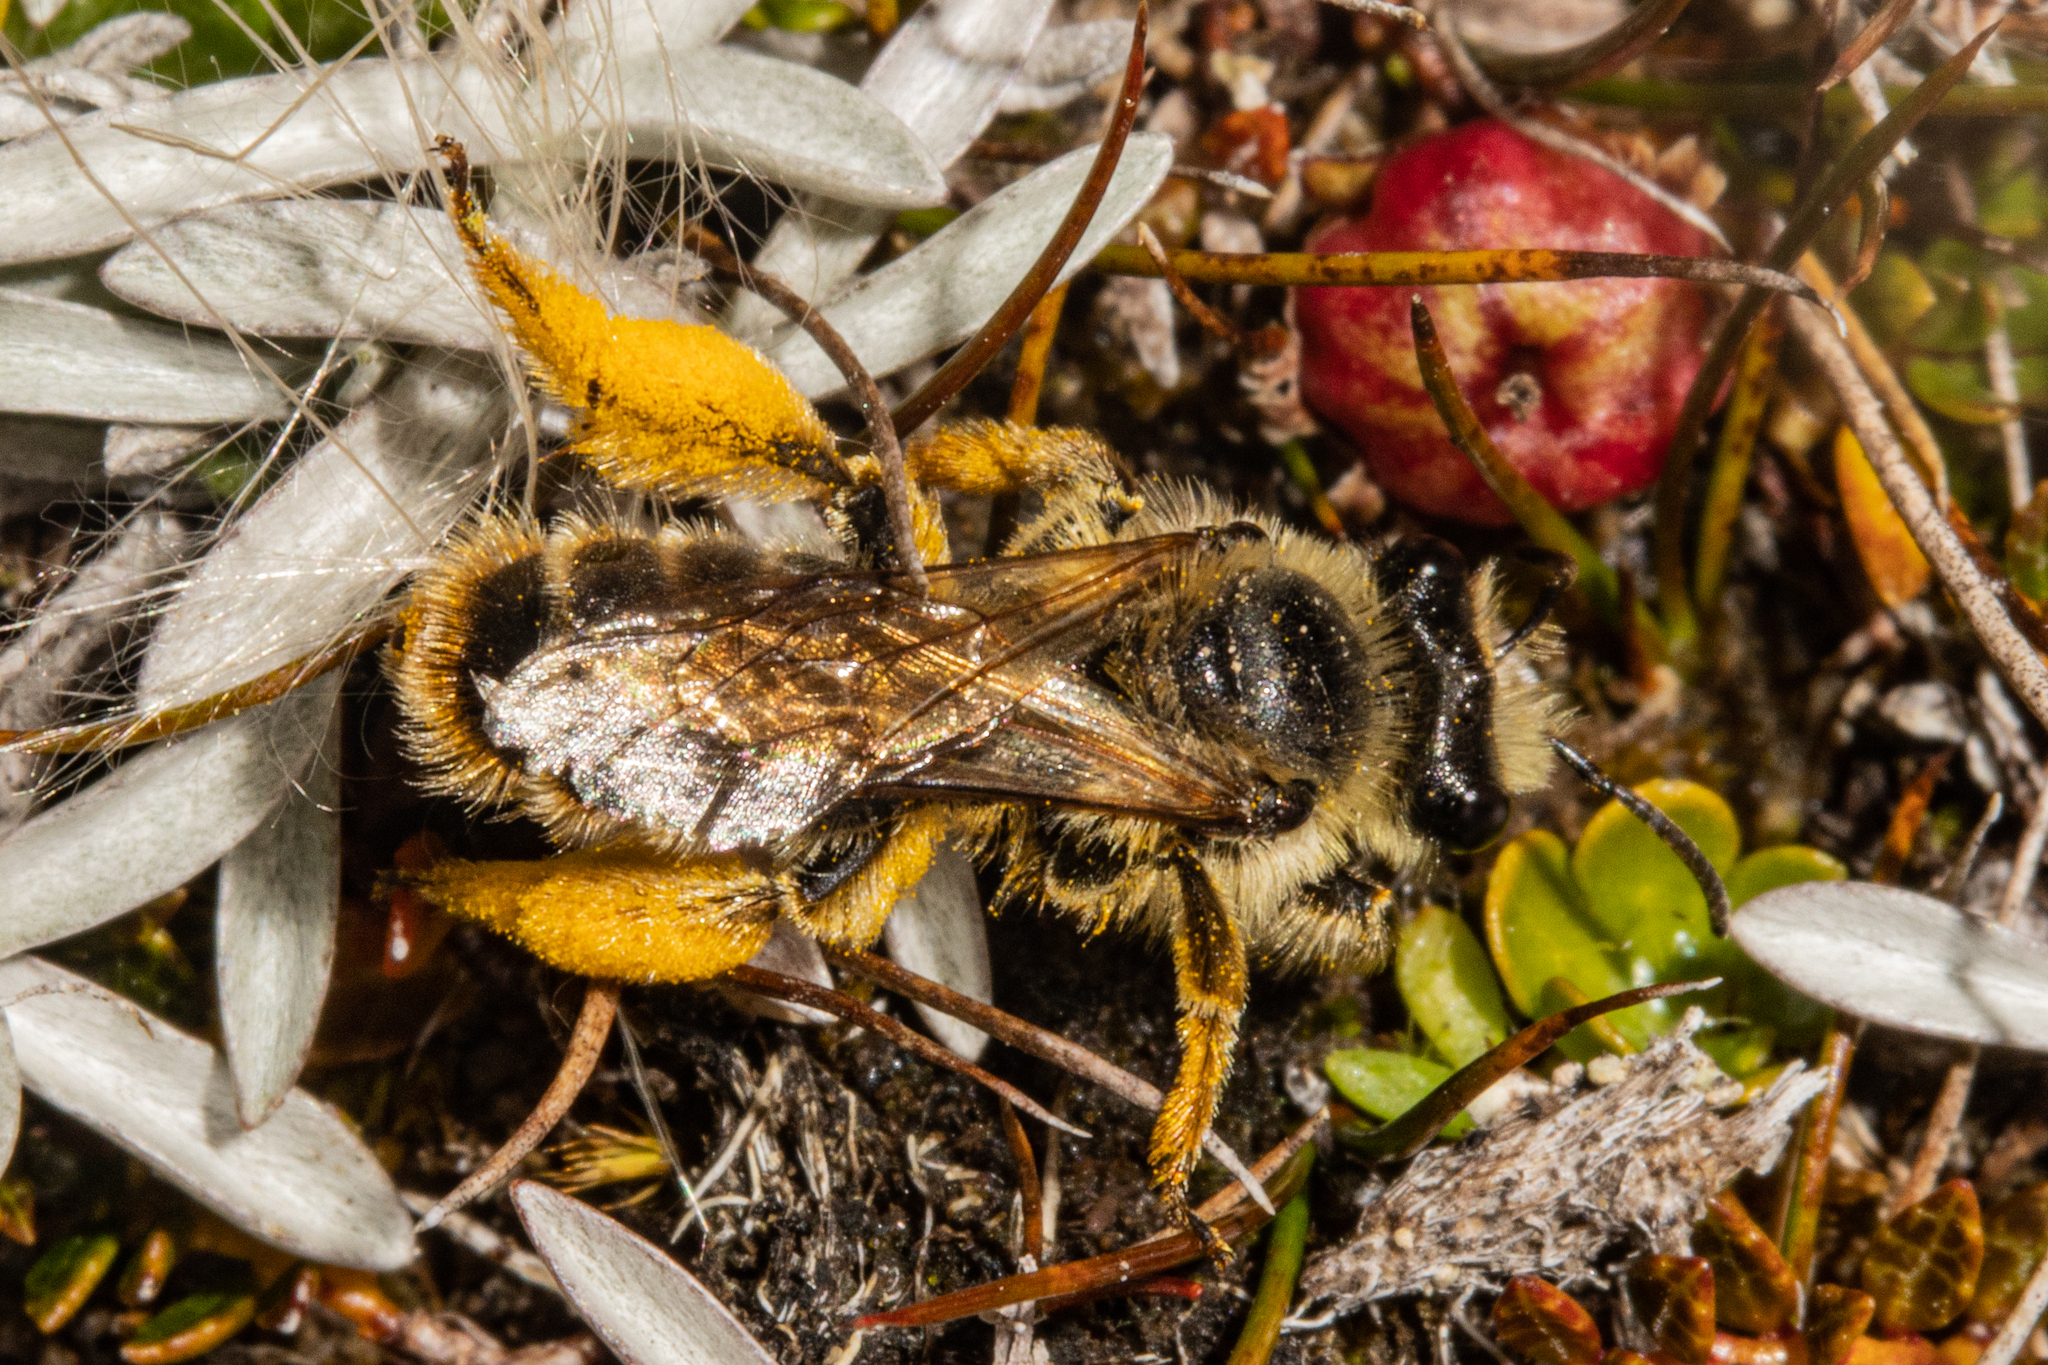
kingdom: Animalia
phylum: Arthropoda
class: Insecta
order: Hymenoptera
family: Colletidae
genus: Leioproctus
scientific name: Leioproctus fulvescens
